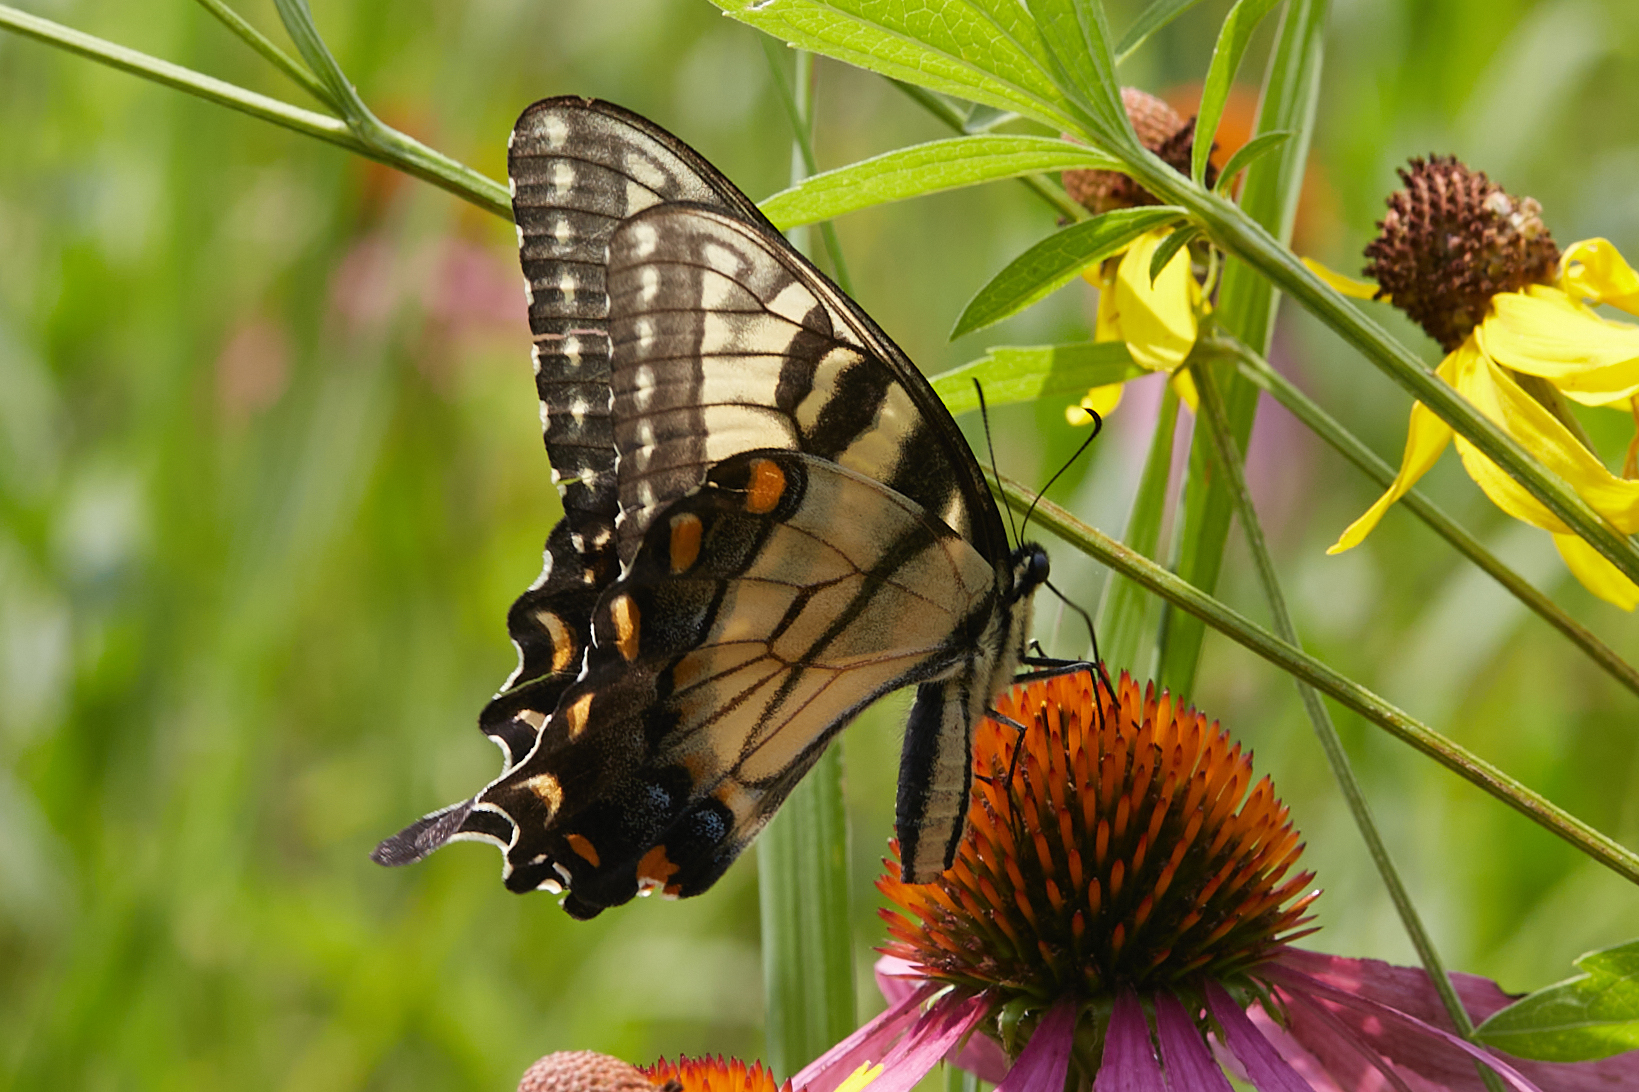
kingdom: Animalia
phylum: Arthropoda
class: Insecta
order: Lepidoptera
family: Papilionidae
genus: Papilio
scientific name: Papilio glaucus
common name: Tiger swallowtail
